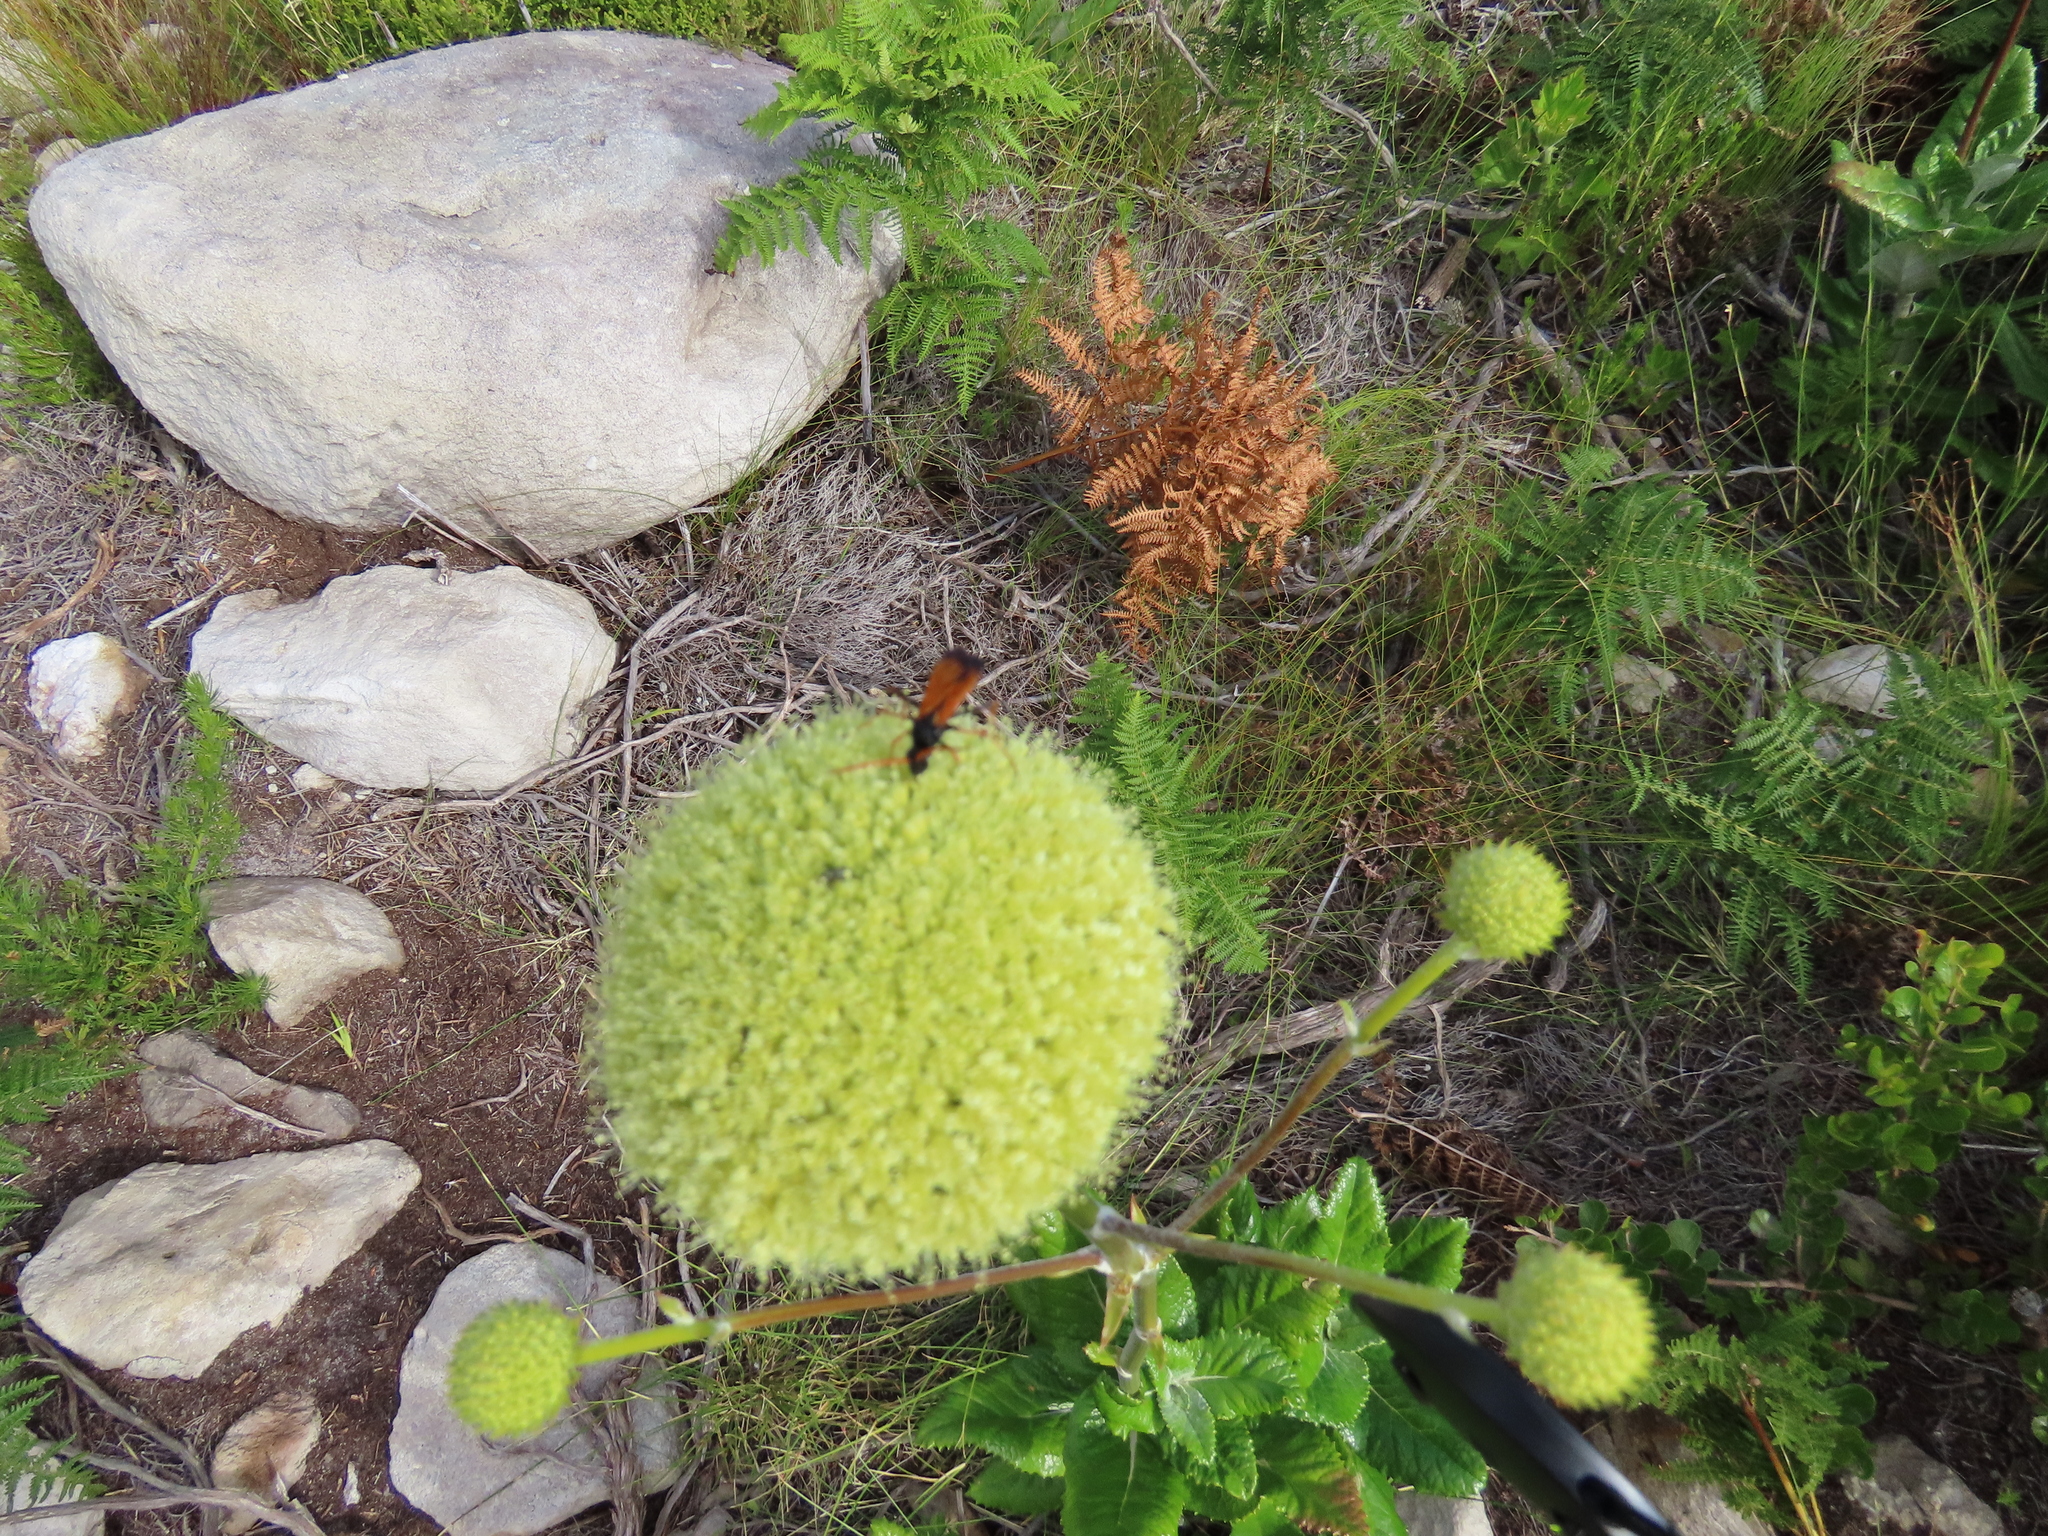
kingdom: Plantae
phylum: Tracheophyta
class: Magnoliopsida
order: Apiales
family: Apiaceae
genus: Hermas
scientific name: Hermas villosa
